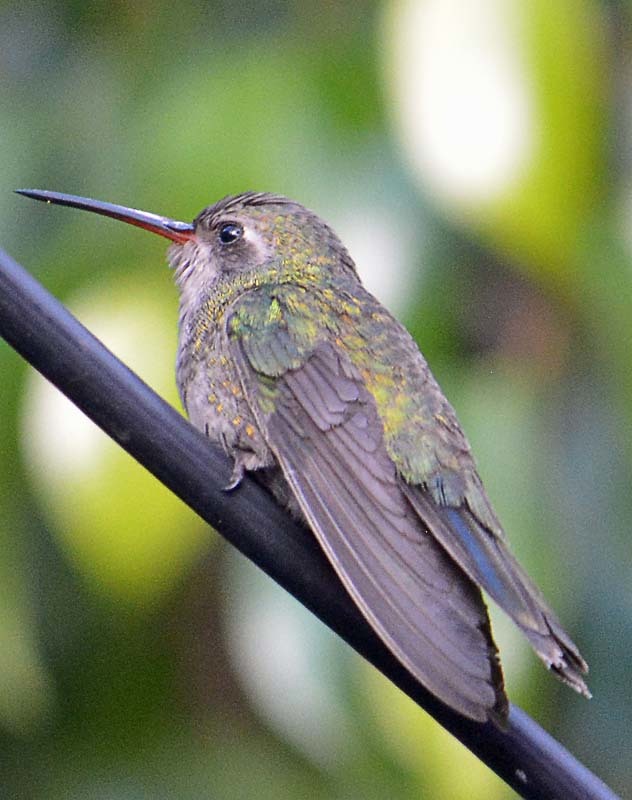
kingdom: Animalia
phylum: Chordata
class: Aves
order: Apodiformes
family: Trochilidae
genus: Cynanthus
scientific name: Cynanthus latirostris
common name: Broad-billed hummingbird
